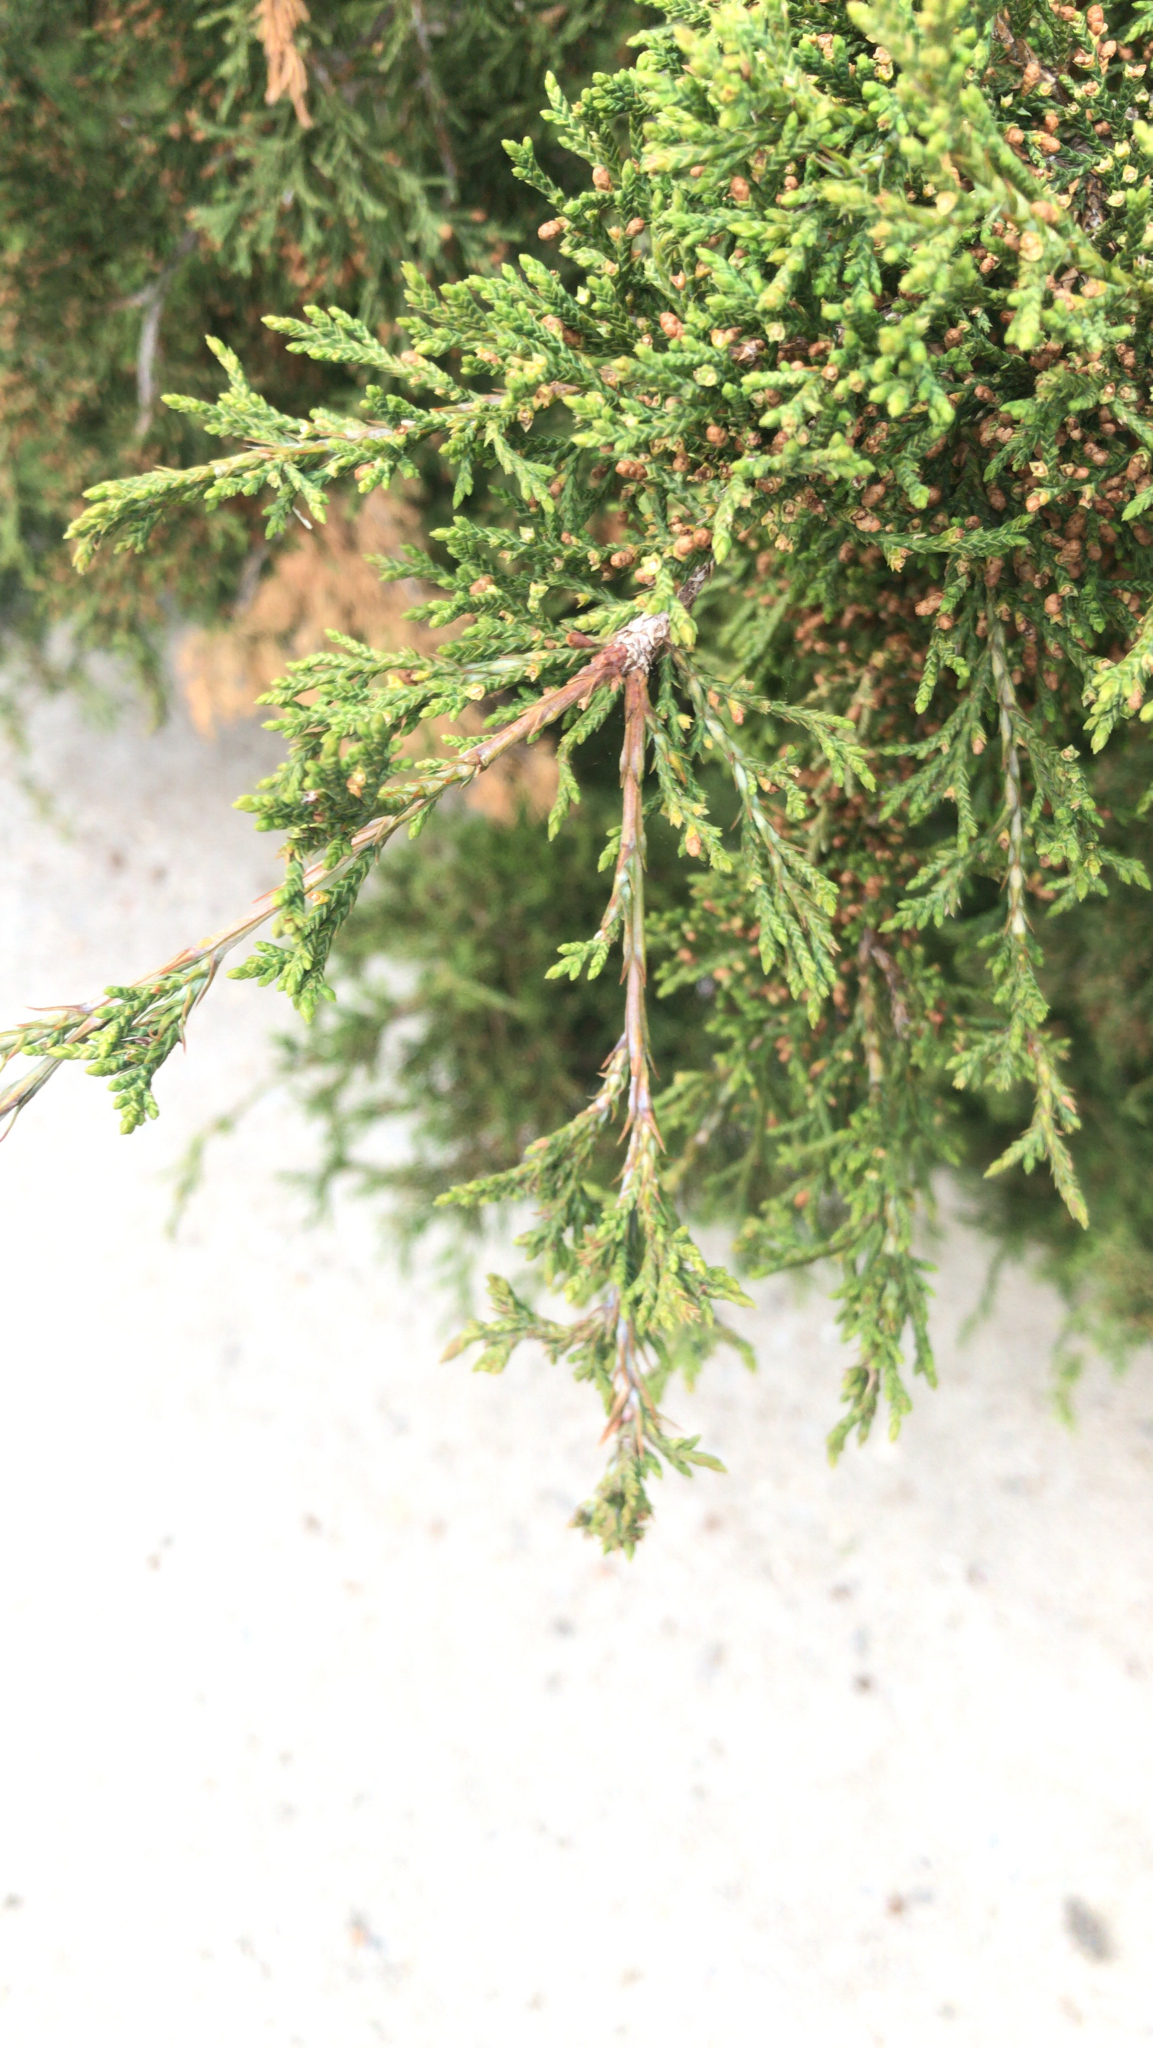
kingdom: Plantae
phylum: Tracheophyta
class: Pinopsida
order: Pinales
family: Cupressaceae
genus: Juniperus
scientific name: Juniperus virginiana
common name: Red juniper
